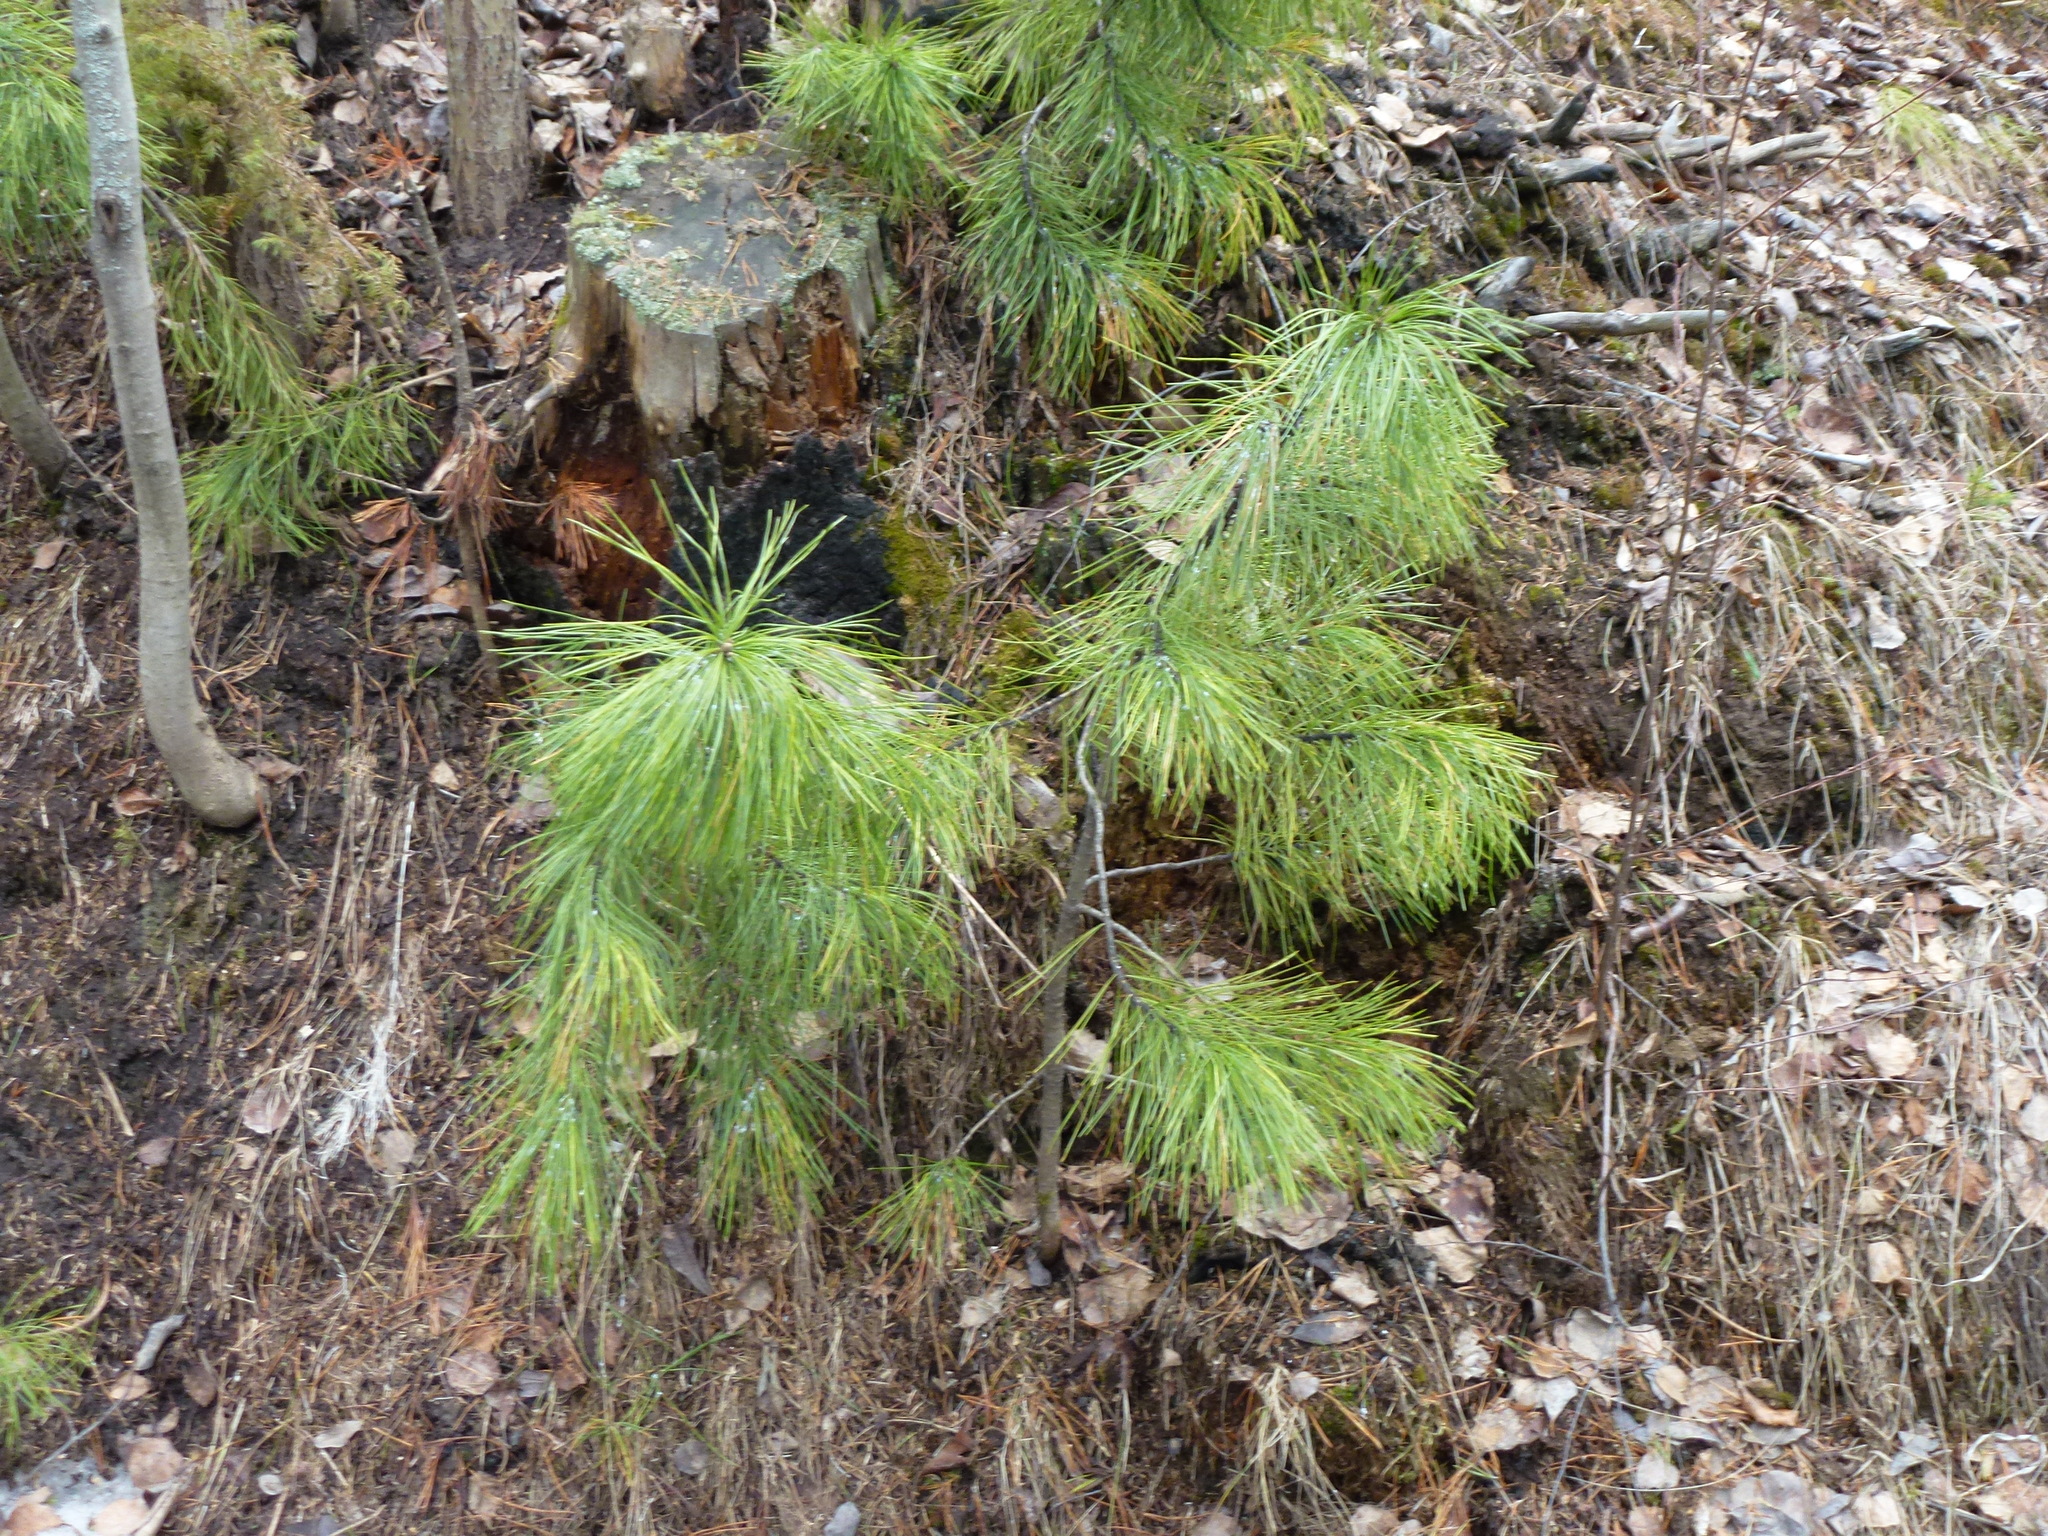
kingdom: Plantae
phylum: Tracheophyta
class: Pinopsida
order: Pinales
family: Pinaceae
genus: Pinus
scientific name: Pinus sibirica
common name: Siberian pine
